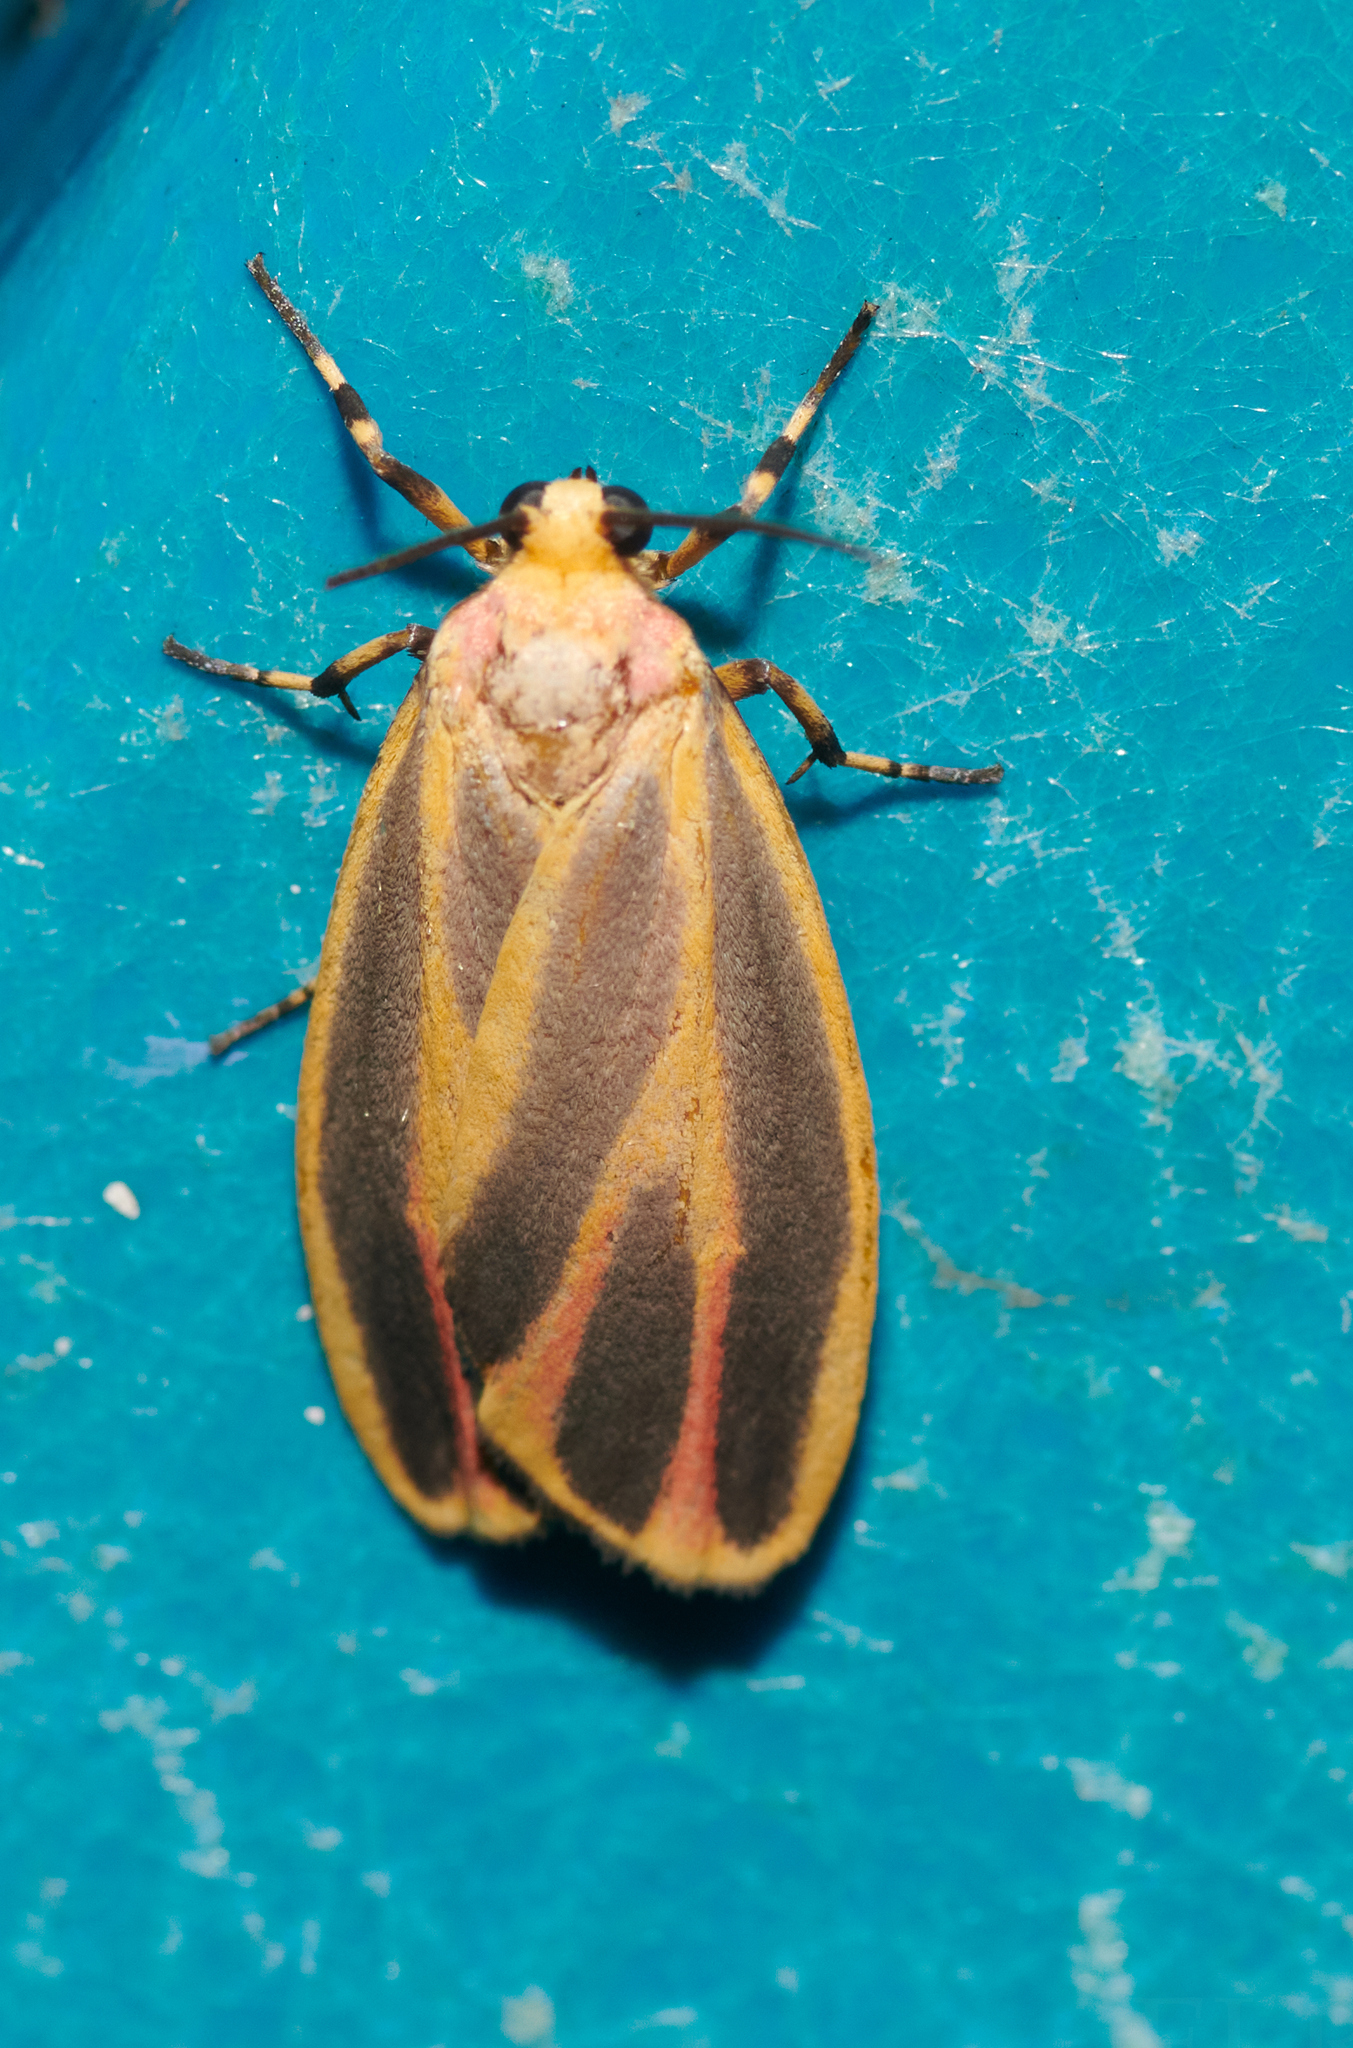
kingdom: Animalia
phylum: Arthropoda
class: Insecta
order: Lepidoptera
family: Erebidae
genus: Hypoprepia
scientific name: Hypoprepia fucosa
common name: Painted lichen moth
